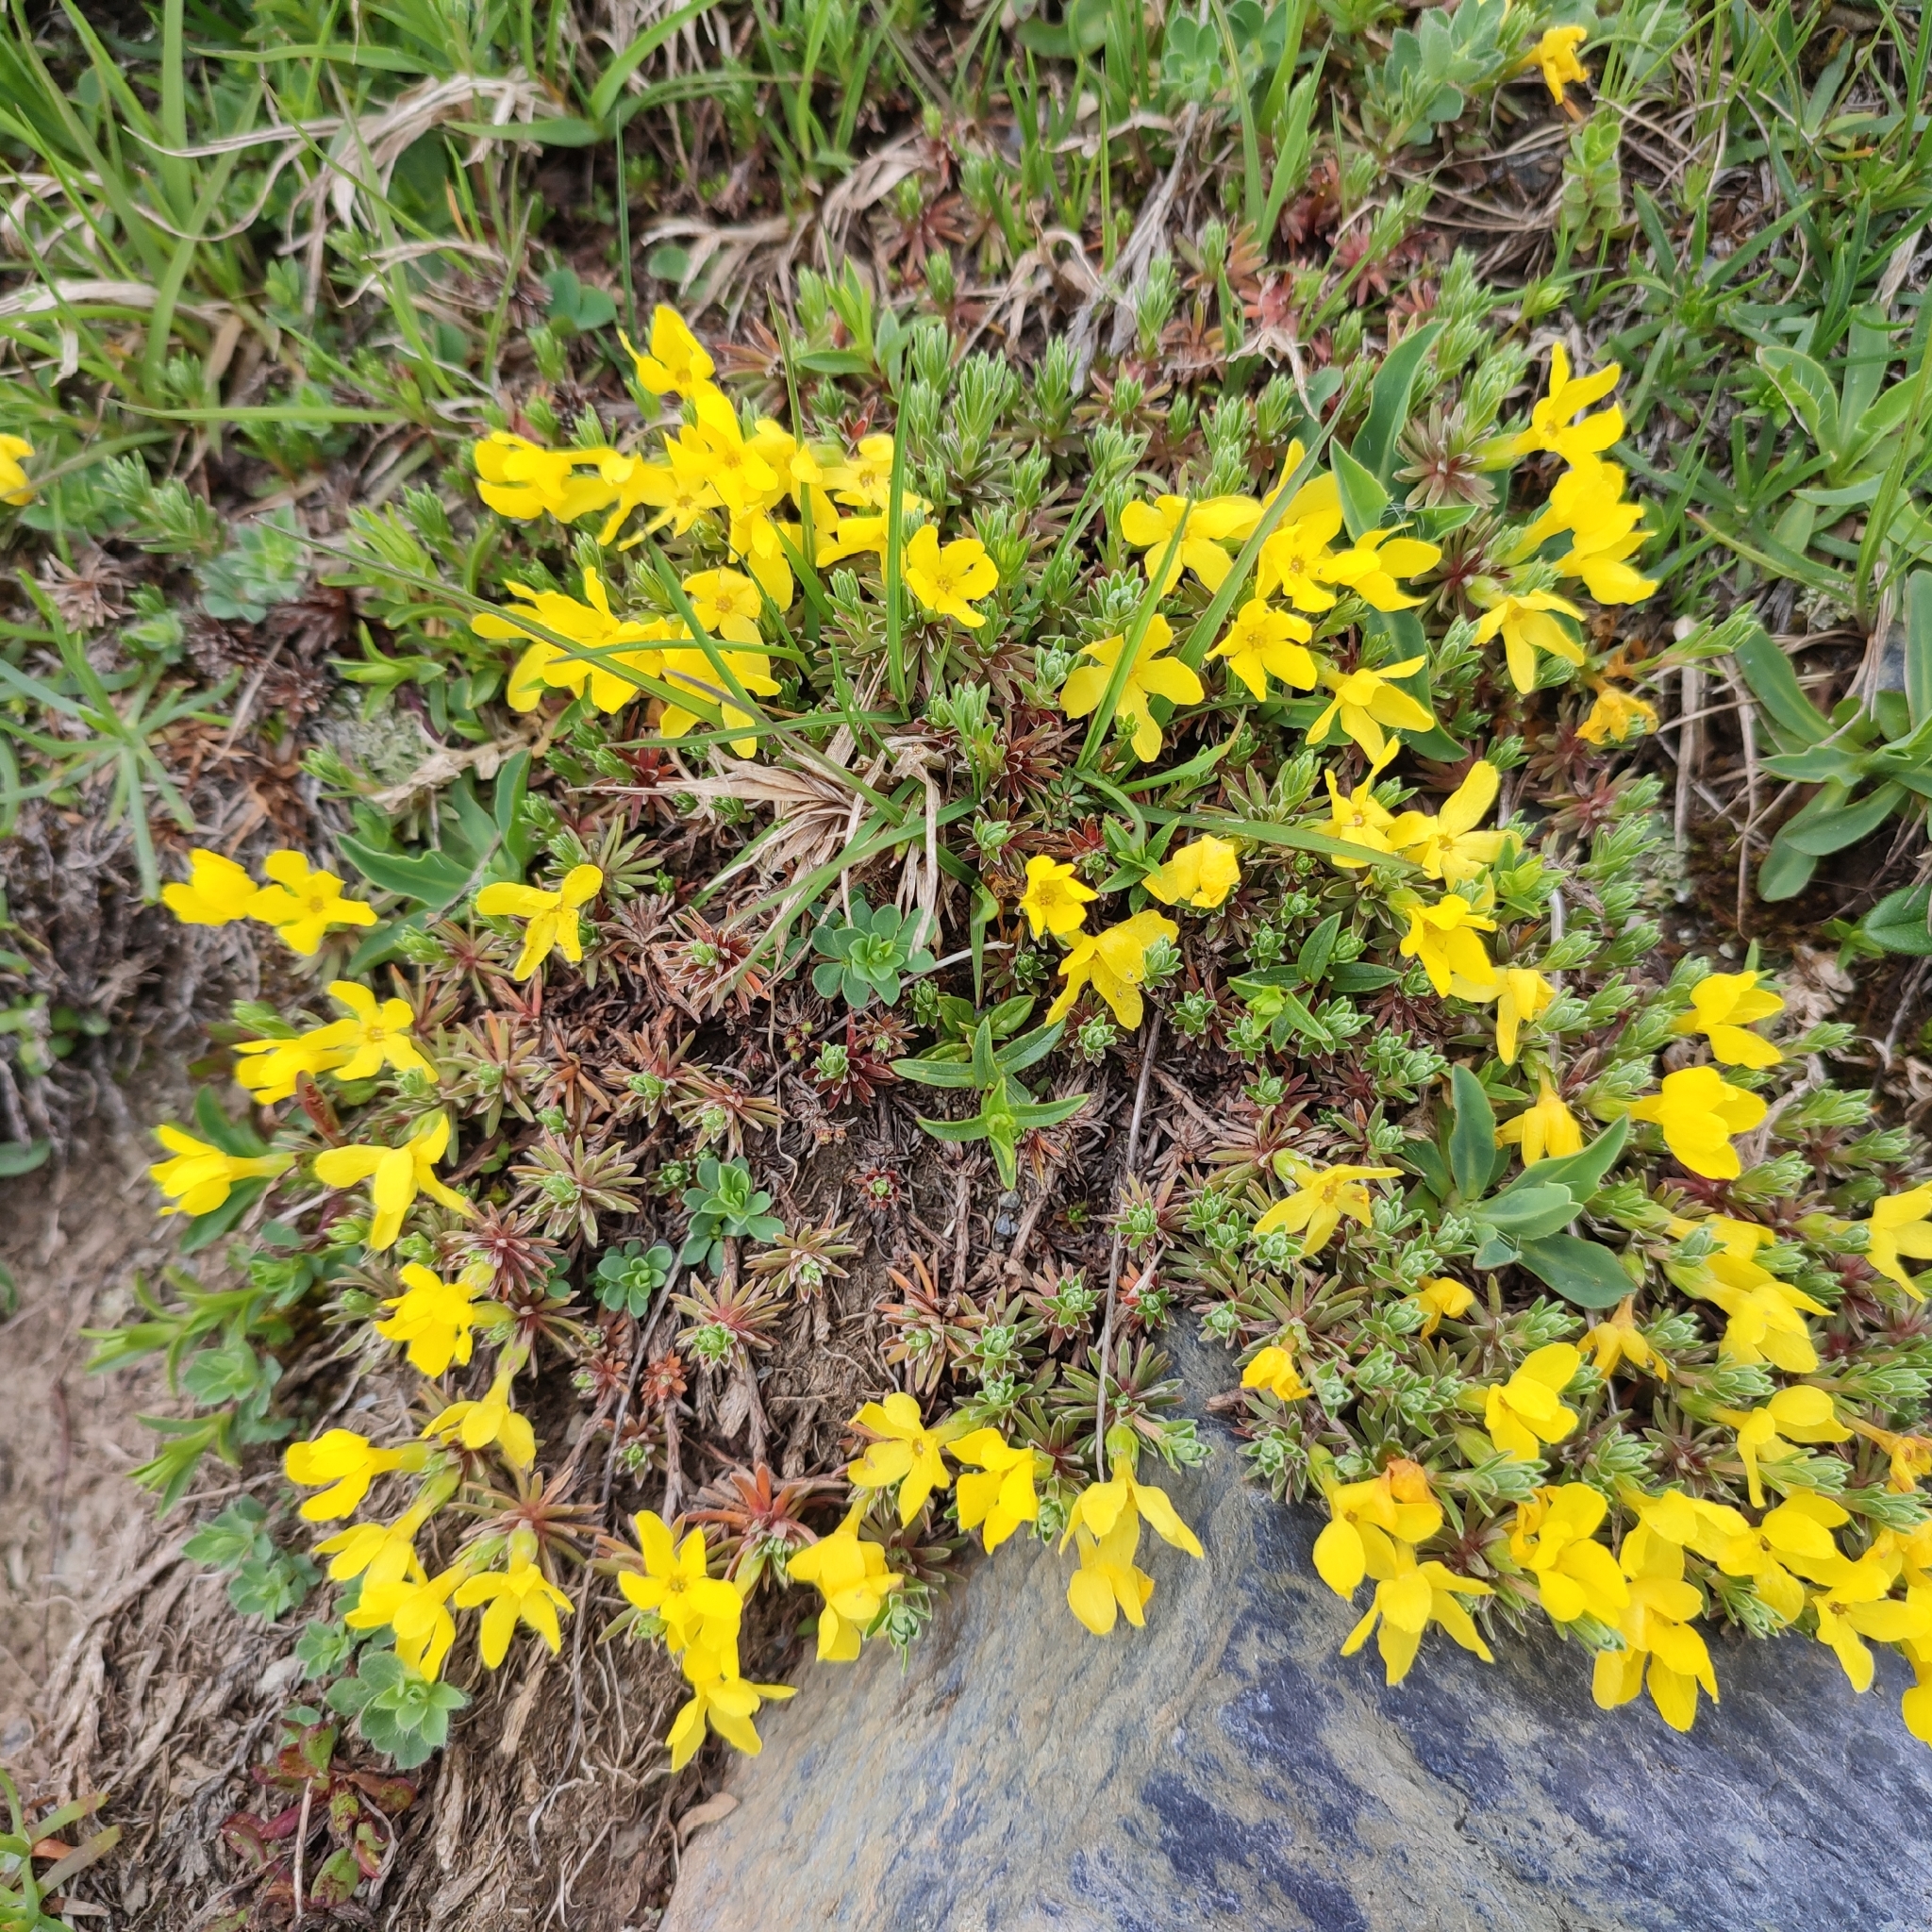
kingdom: Plantae
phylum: Tracheophyta
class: Magnoliopsida
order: Ericales
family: Primulaceae
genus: Androsace
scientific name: Androsace vitaliana
